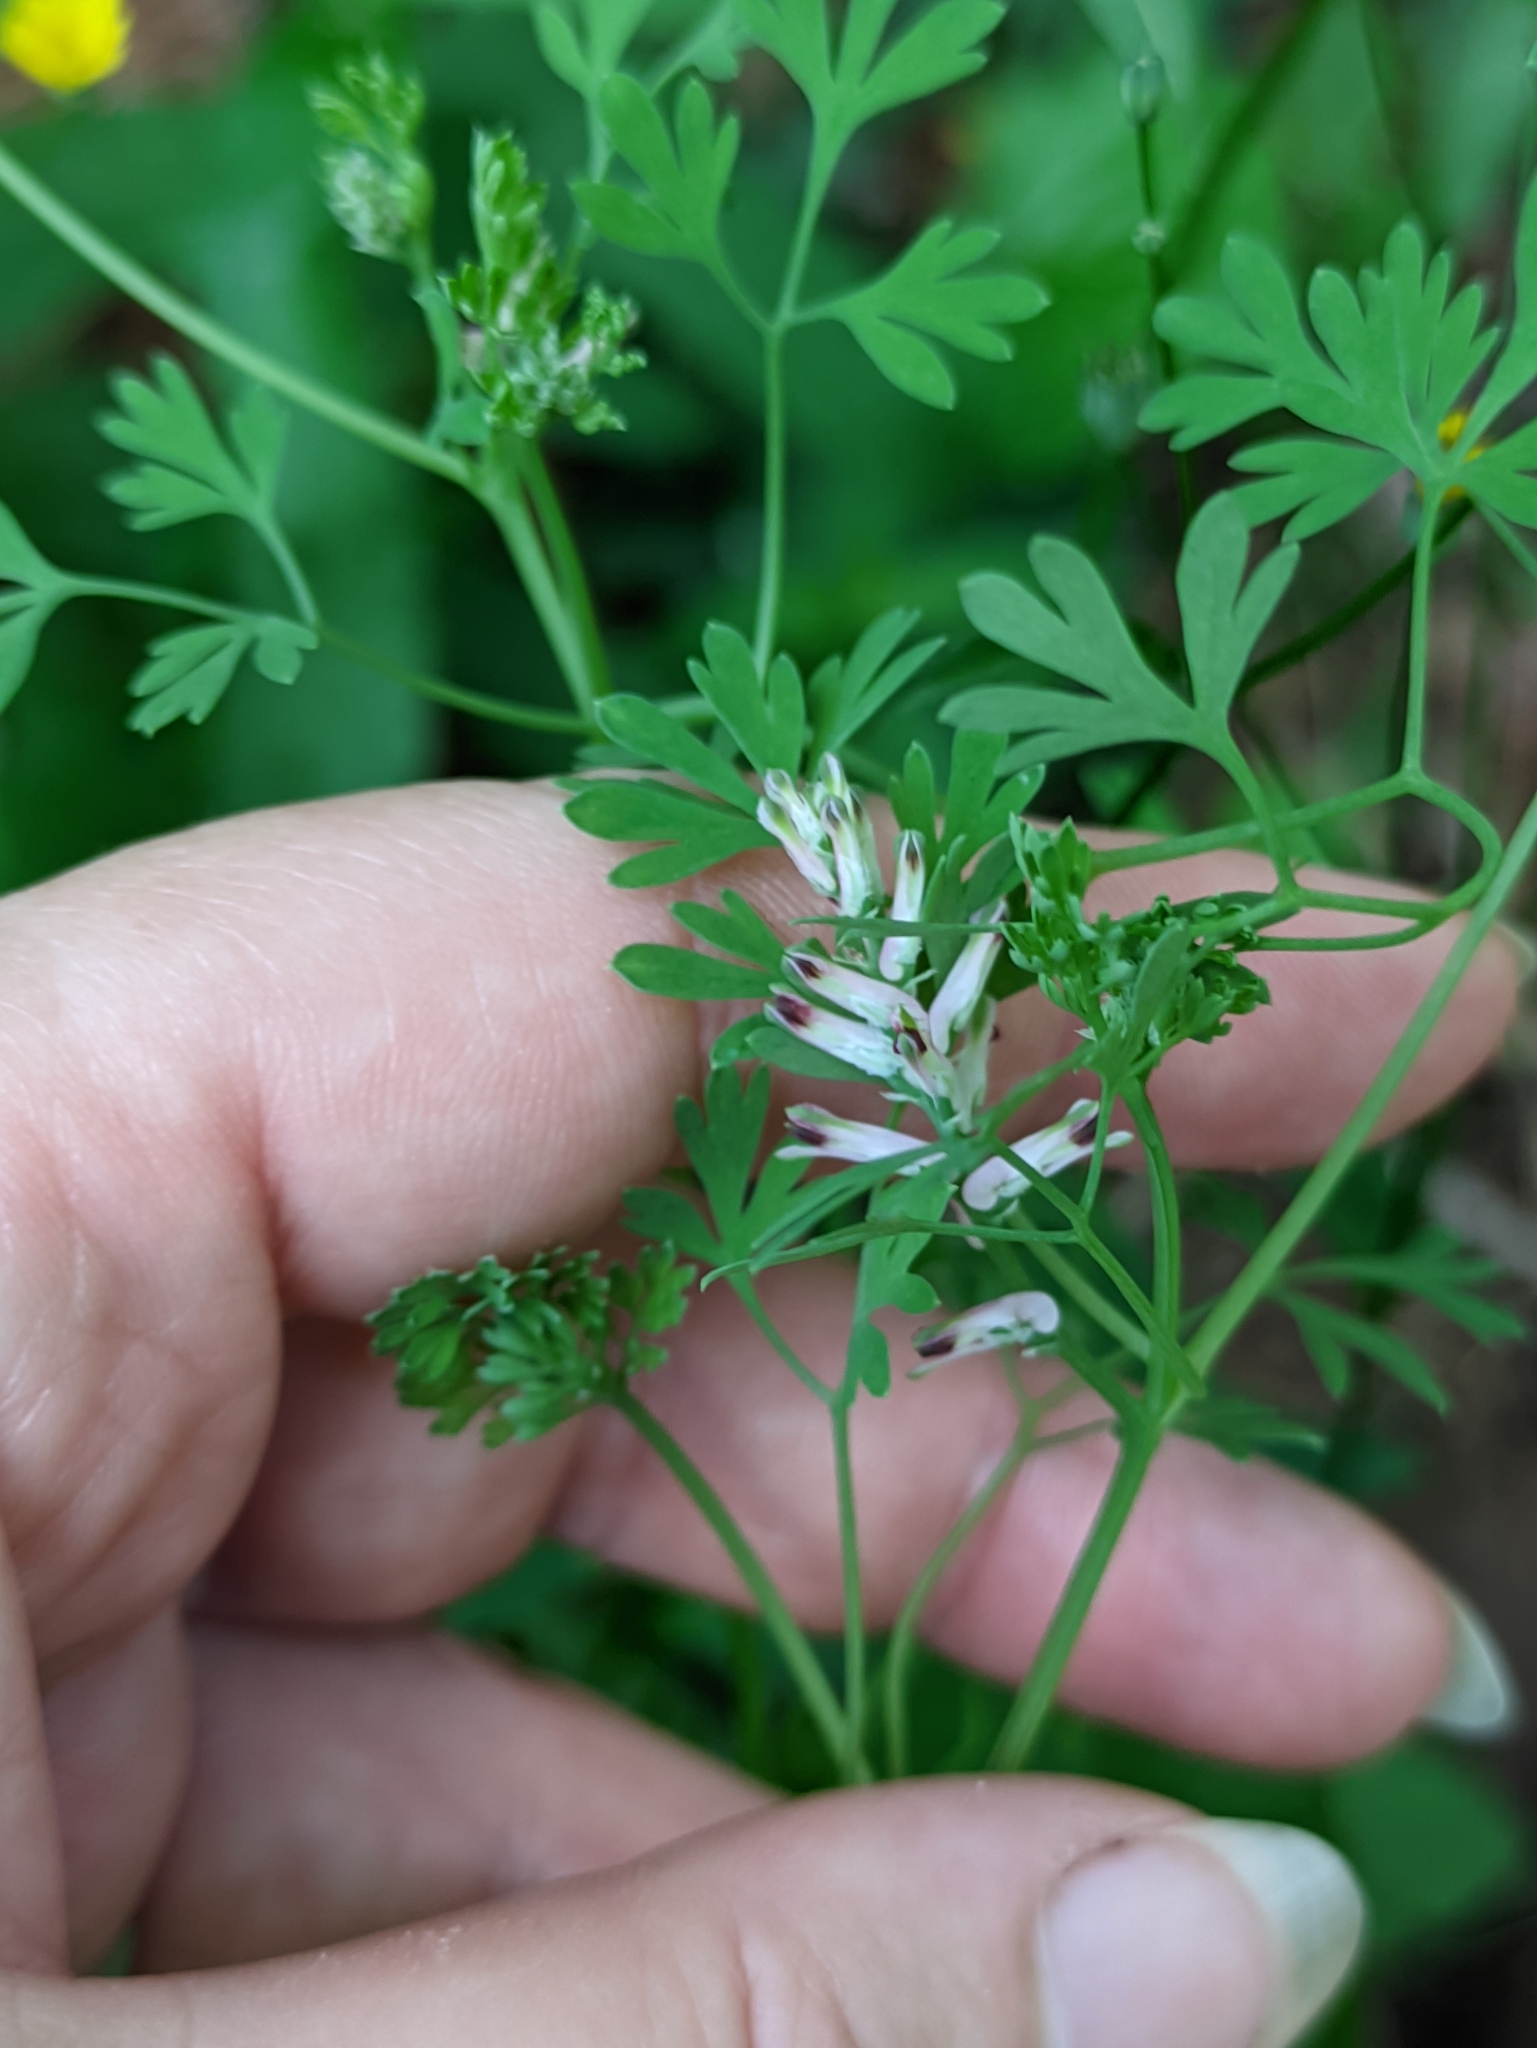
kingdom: Plantae
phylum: Tracheophyta
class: Magnoliopsida
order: Ranunculales
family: Papaveraceae
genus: Fumaria
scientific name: Fumaria officinalis
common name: Common fumitory
